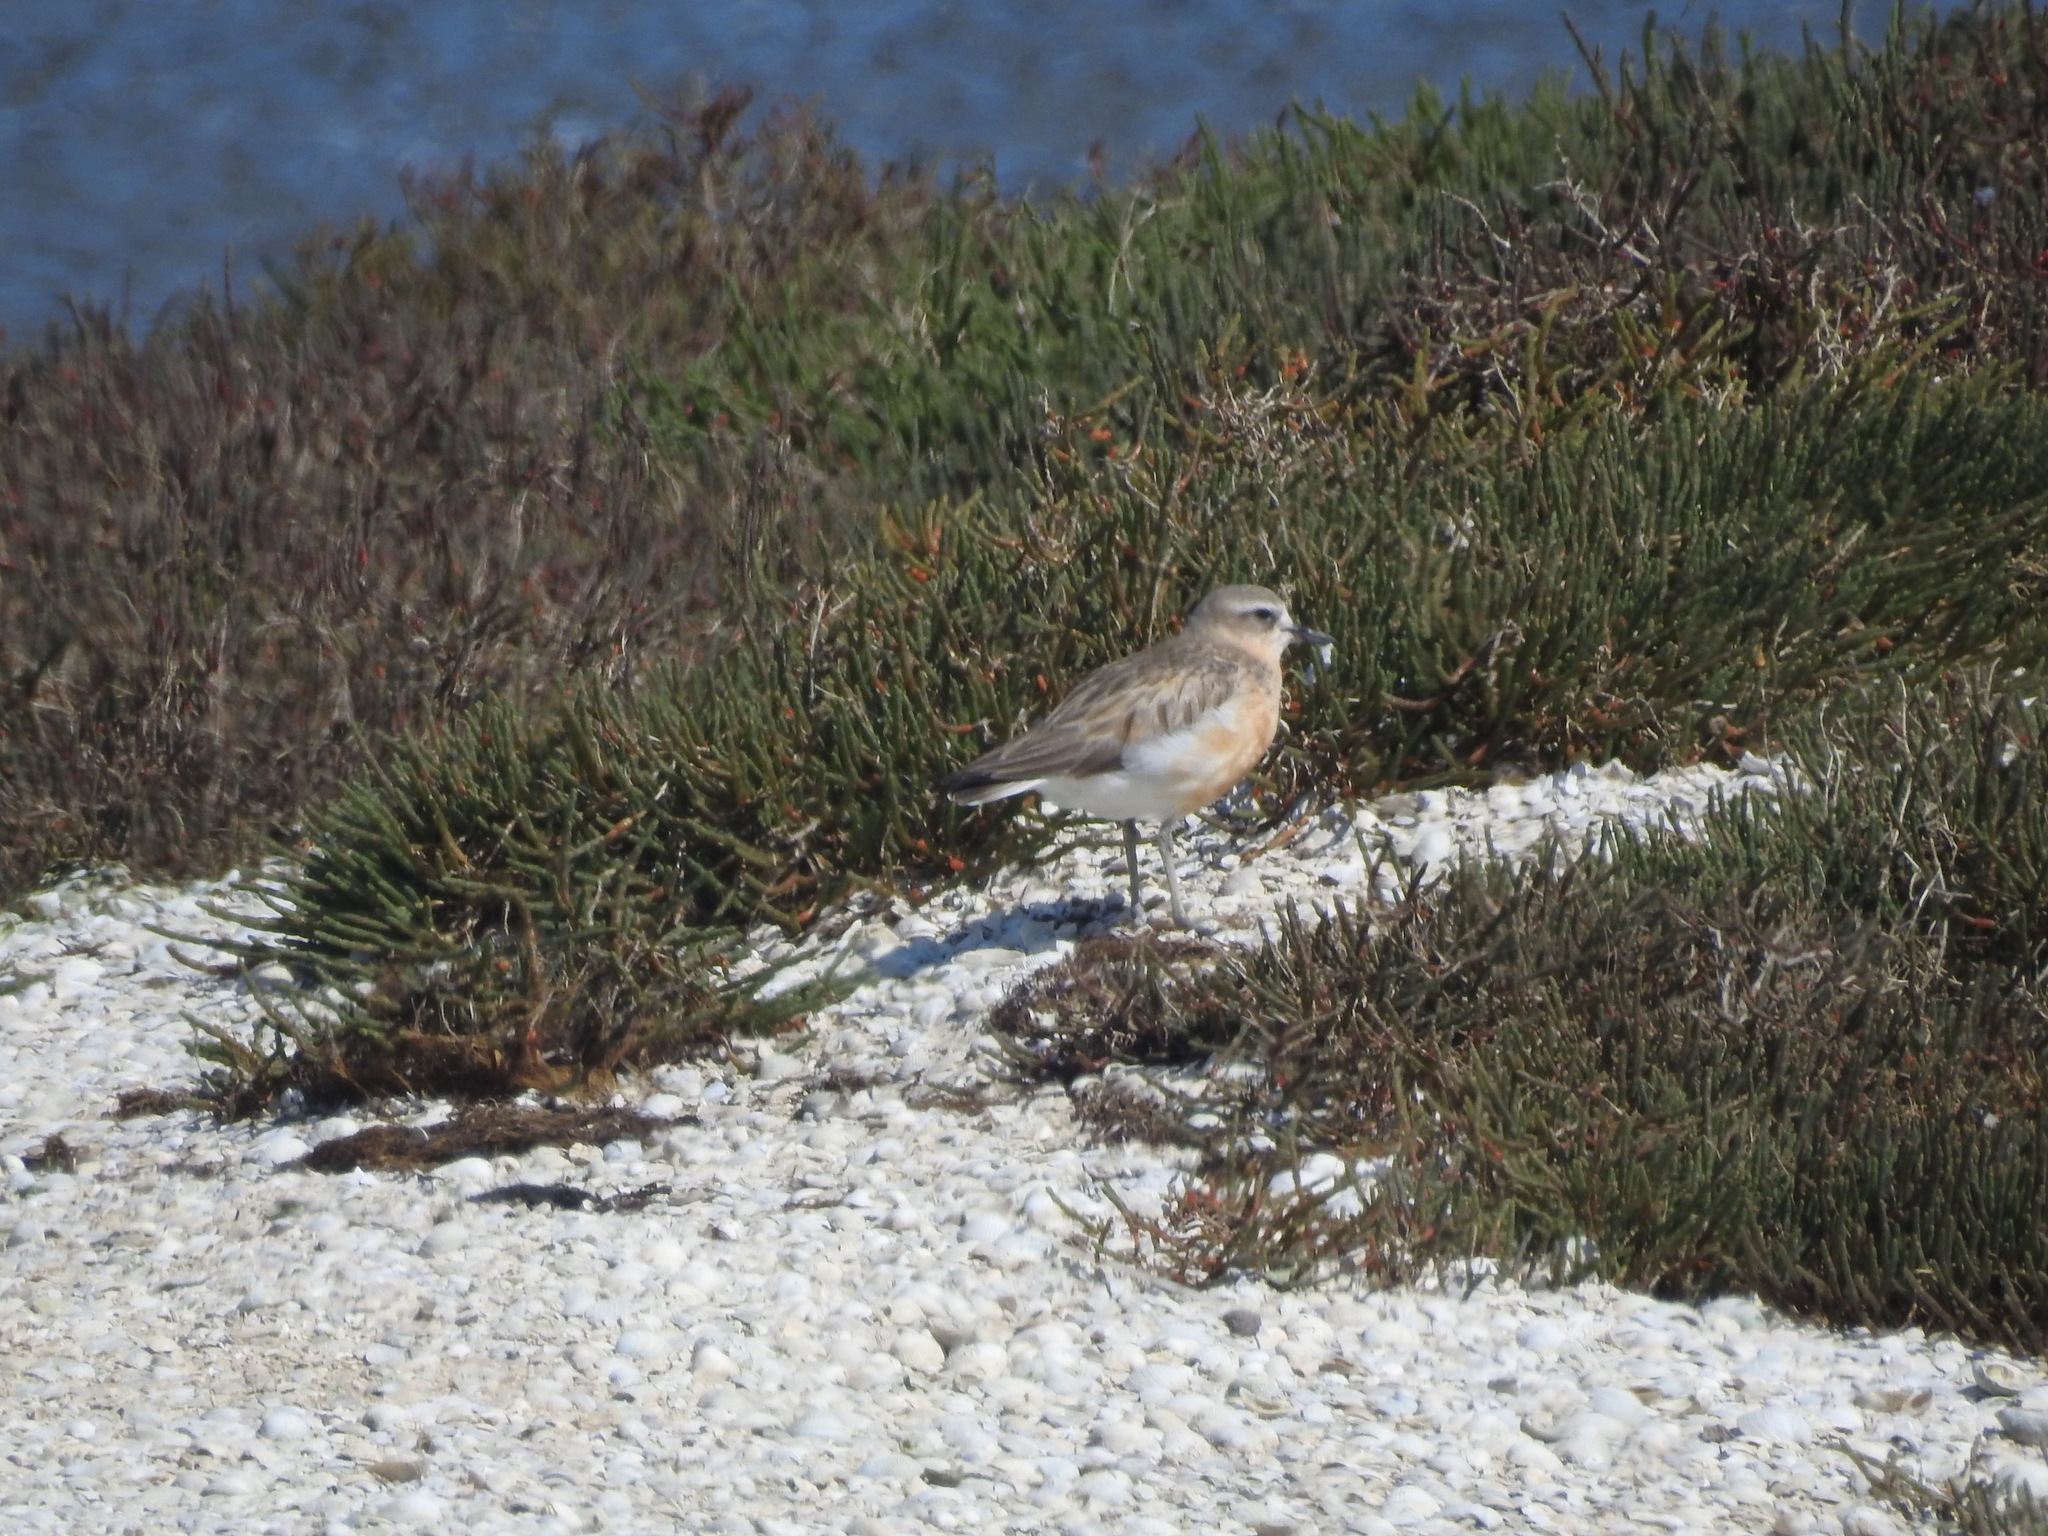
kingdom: Animalia
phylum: Chordata
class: Aves
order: Charadriiformes
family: Charadriidae
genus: Anarhynchus
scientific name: Anarhynchus
